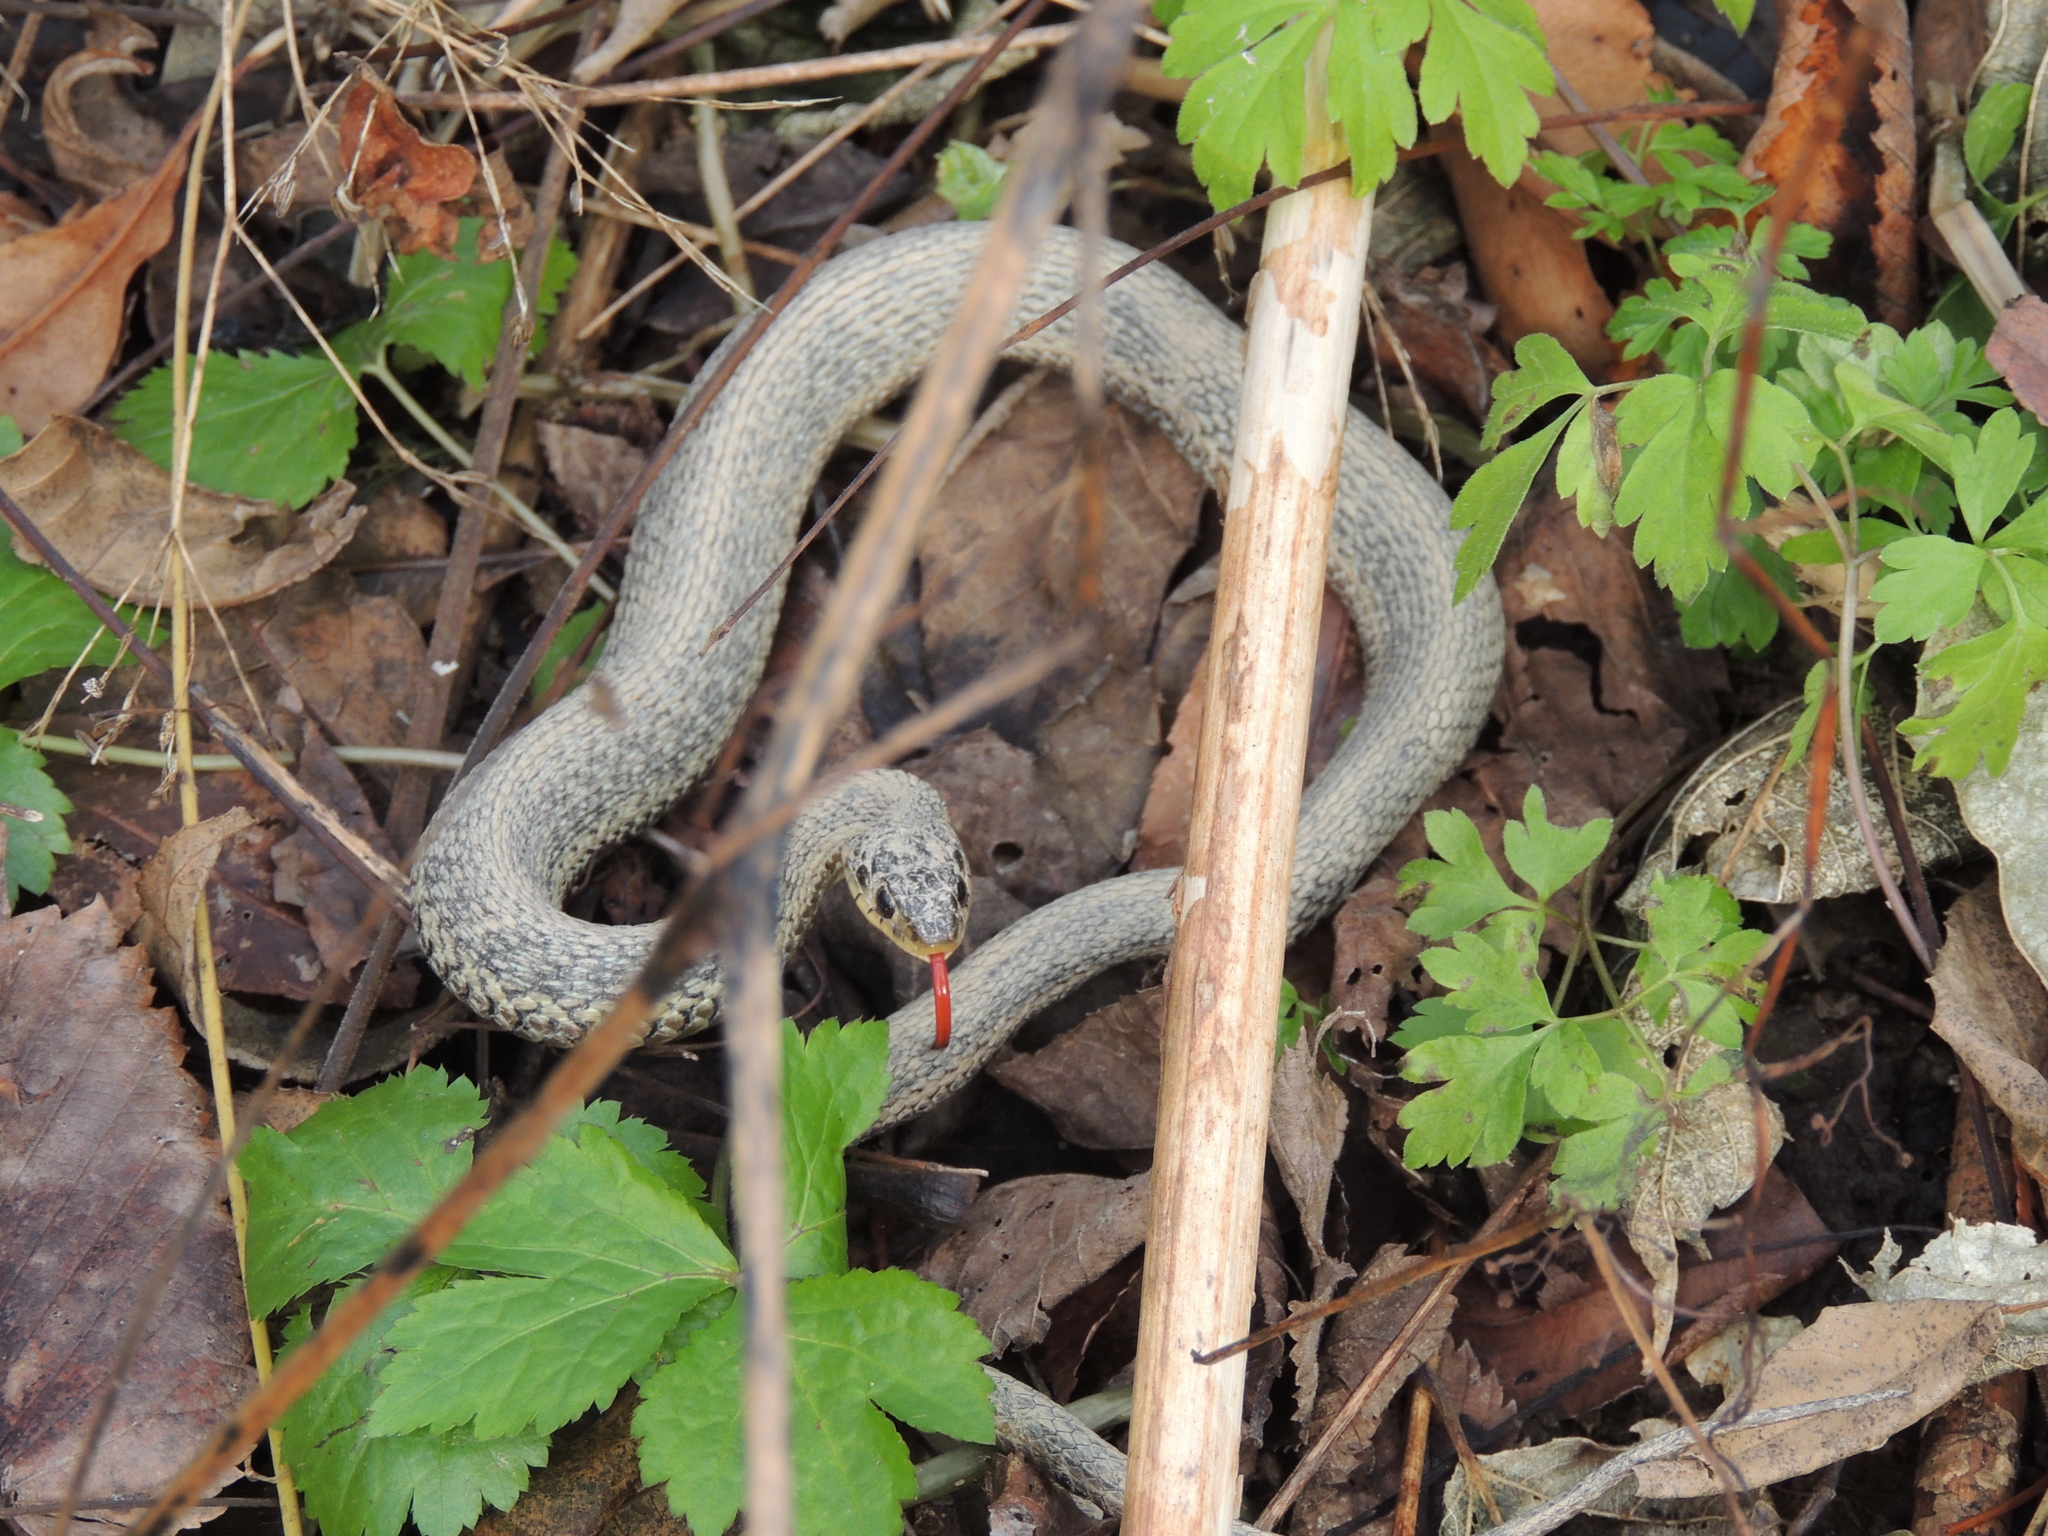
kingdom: Animalia
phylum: Chordata
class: Squamata
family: Colubridae
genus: Thamnophis
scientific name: Thamnophis sirtalis
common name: Common garter snake
